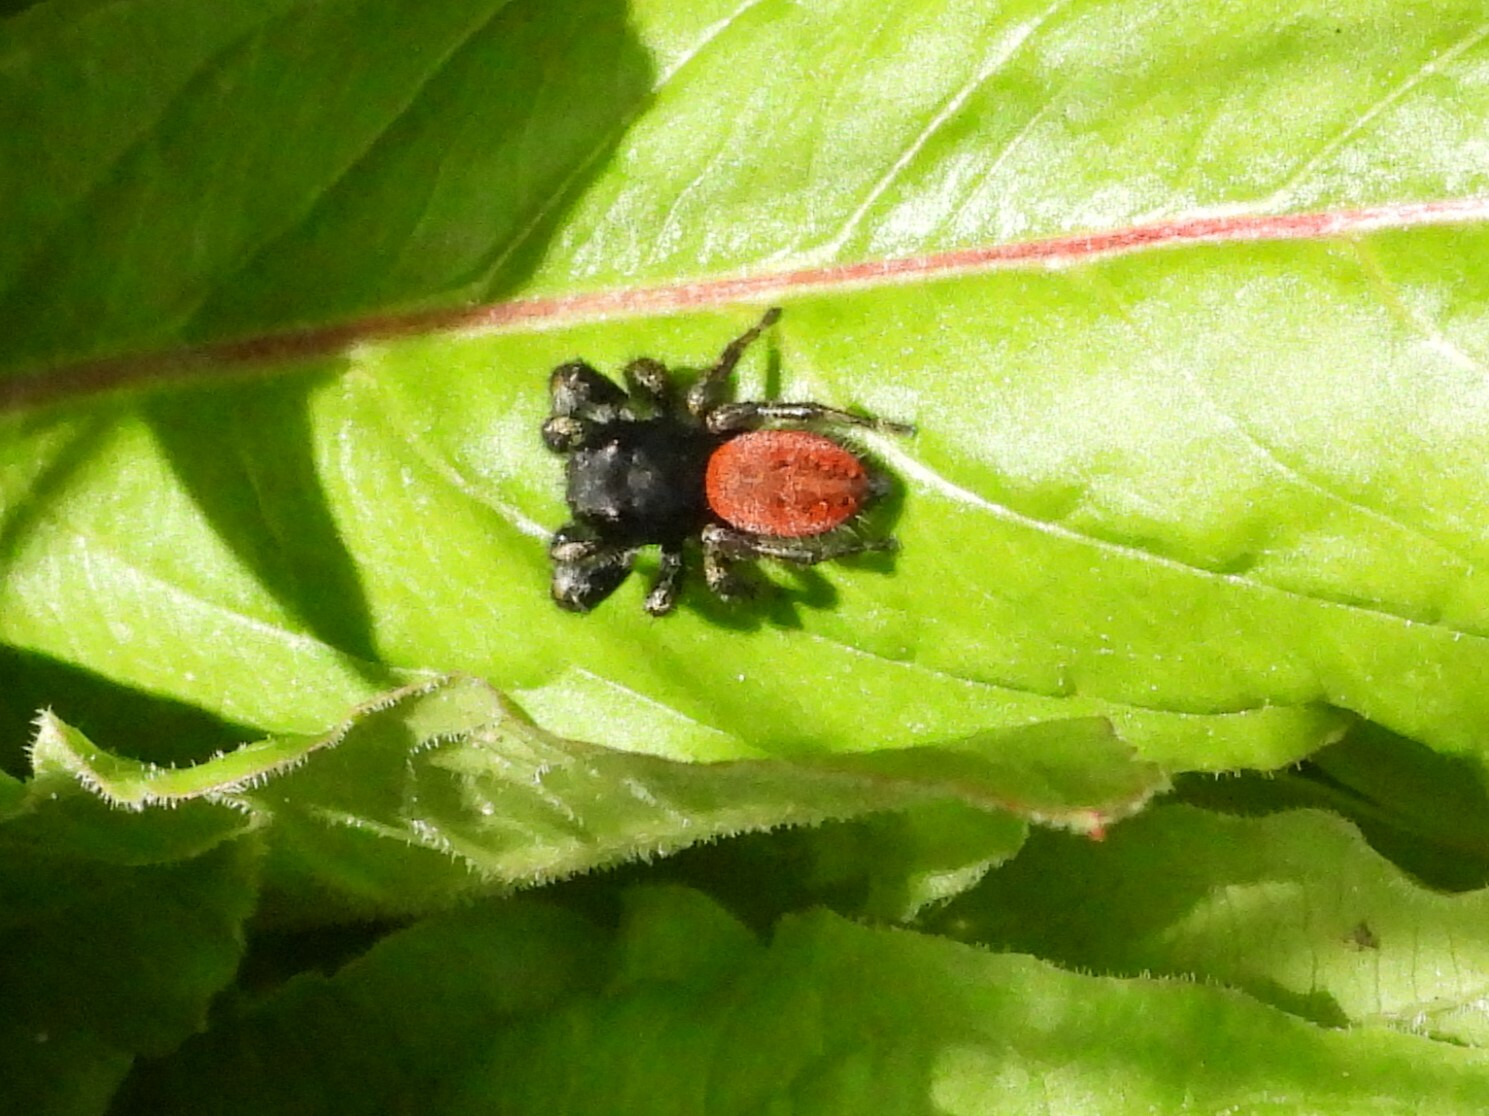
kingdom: Animalia
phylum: Arthropoda
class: Arachnida
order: Araneae
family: Salticidae
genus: Phidippus
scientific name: Phidippus johnsoni
